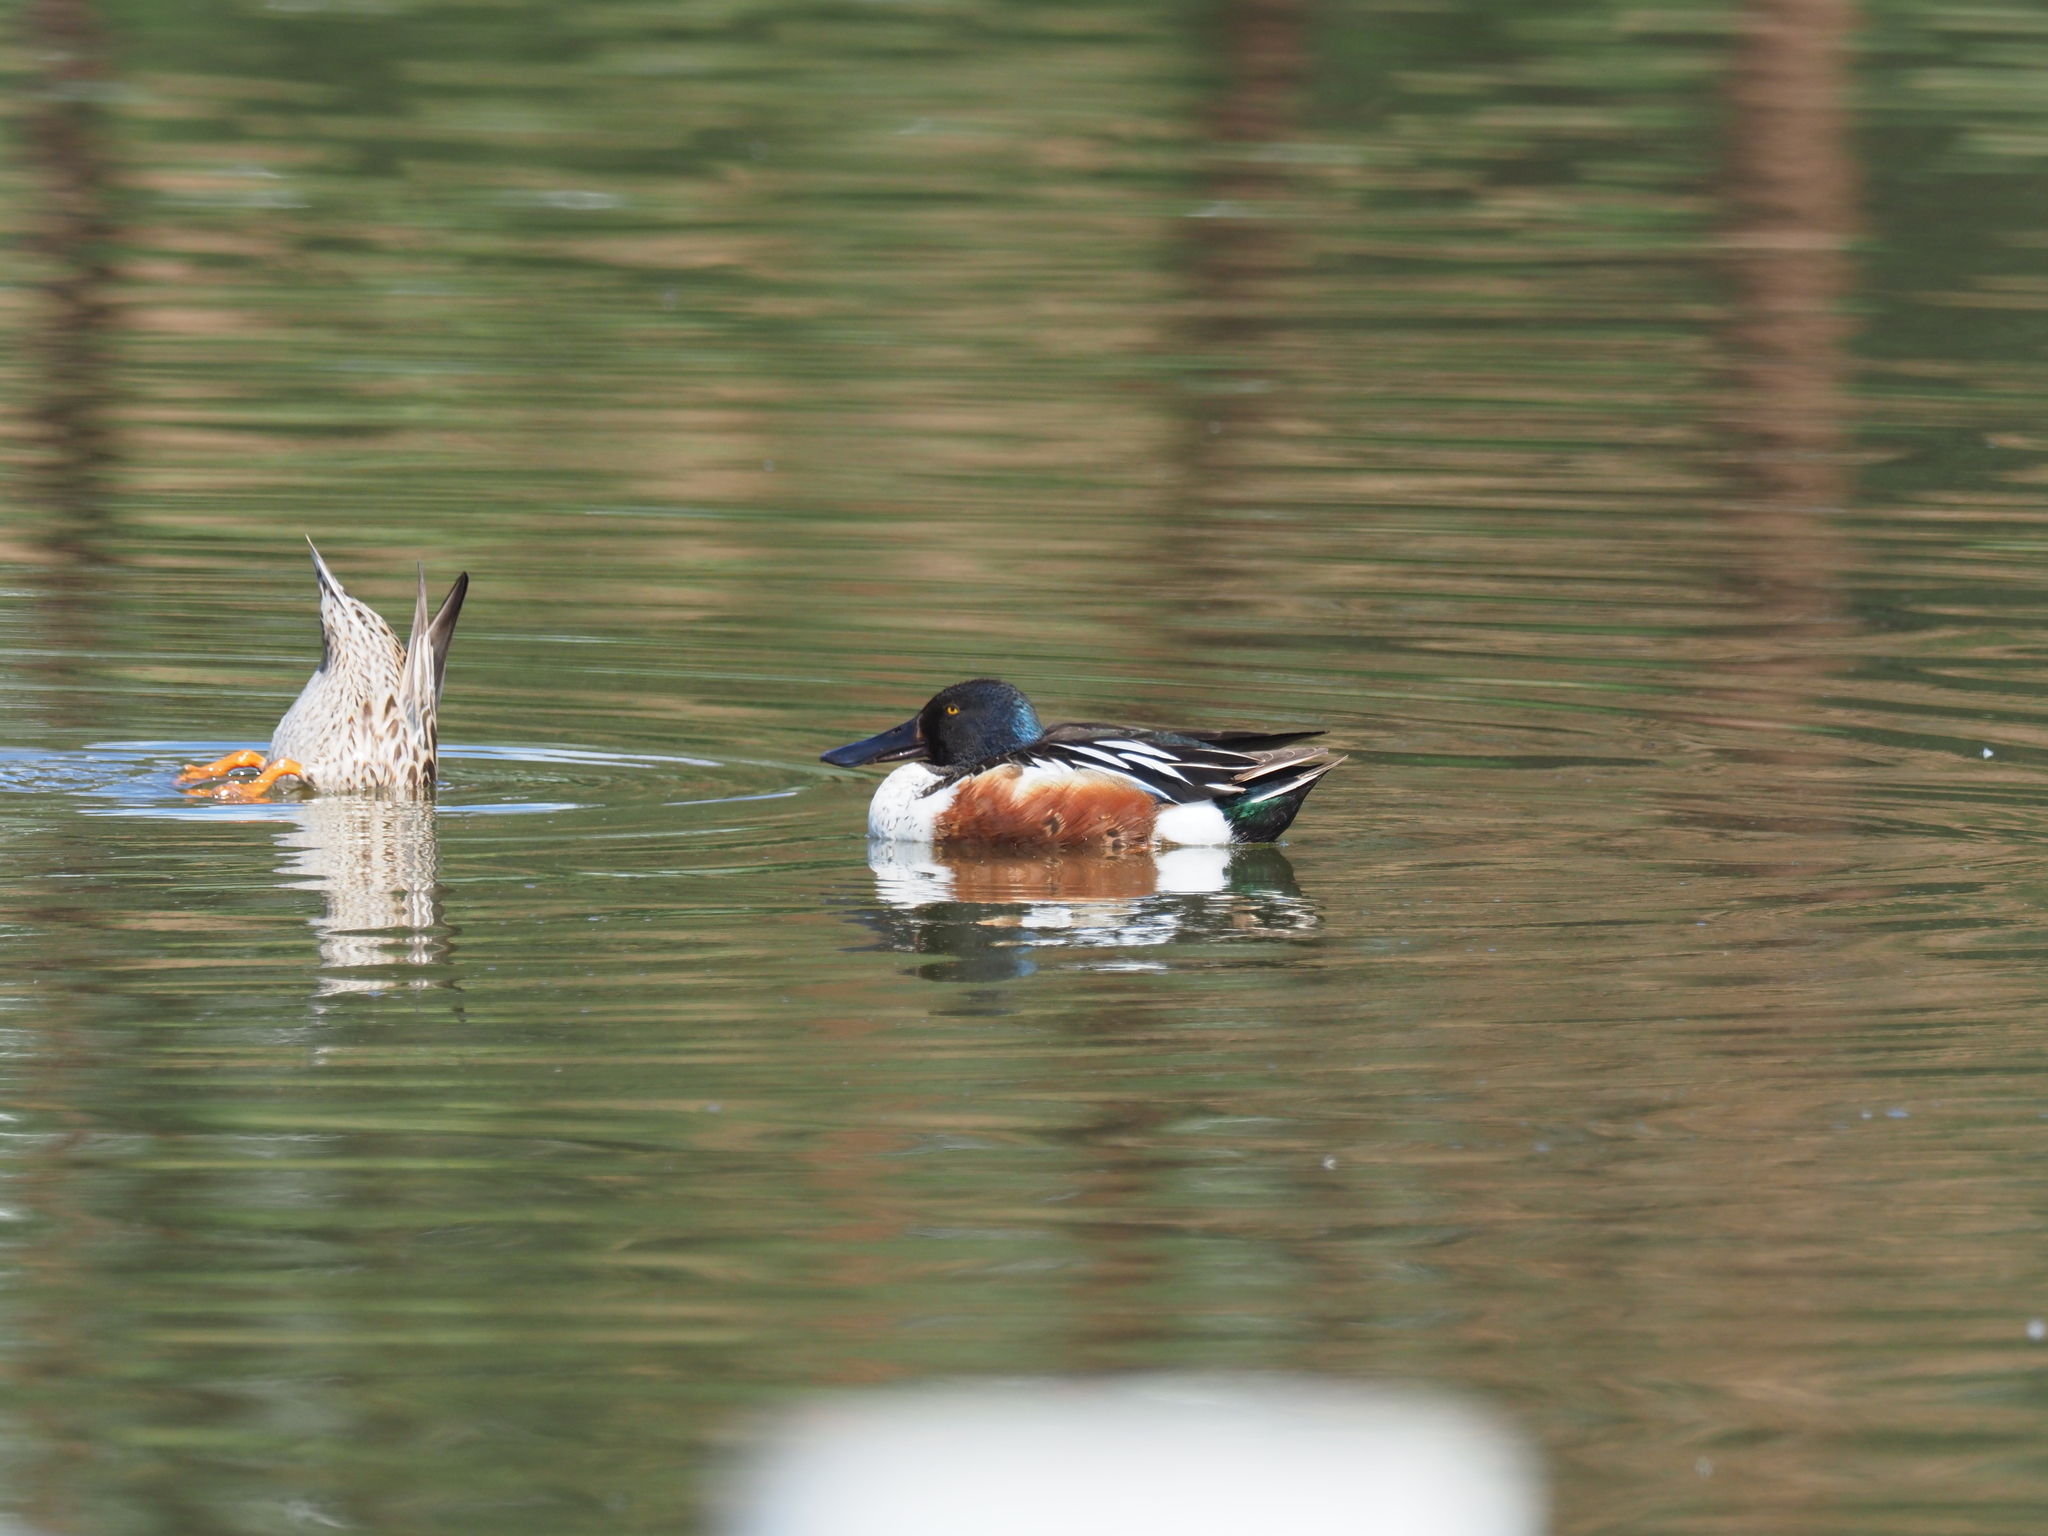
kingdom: Animalia
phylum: Chordata
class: Aves
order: Anseriformes
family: Anatidae
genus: Spatula
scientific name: Spatula clypeata
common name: Northern shoveler
